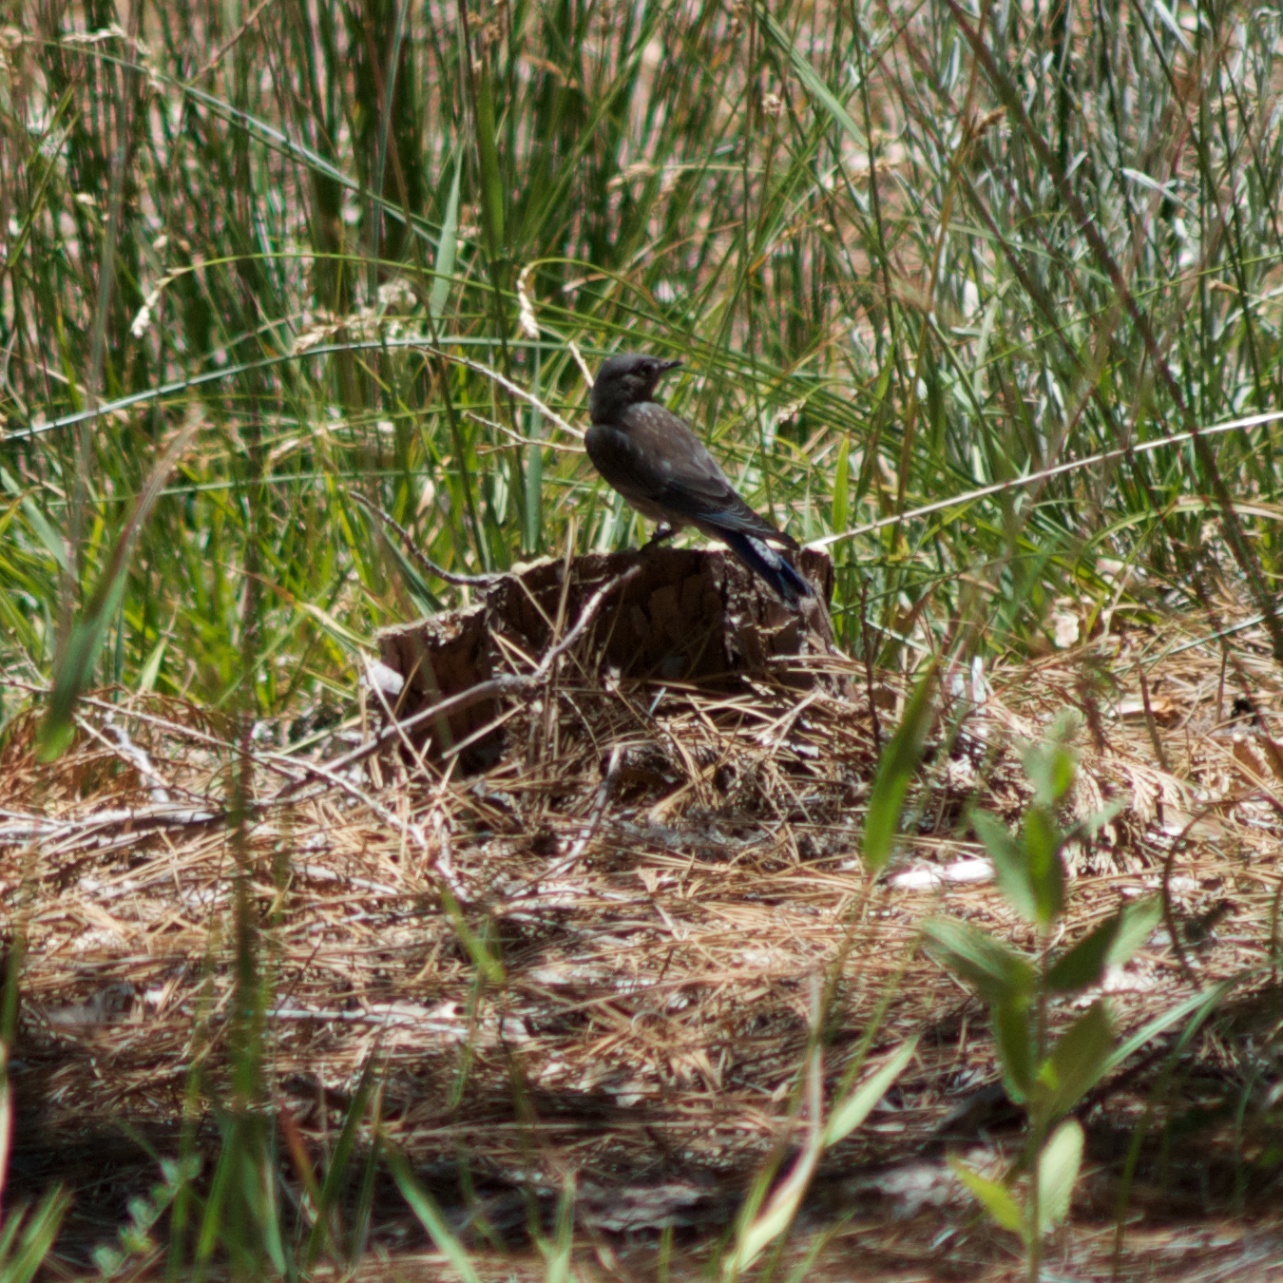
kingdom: Animalia
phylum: Chordata
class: Aves
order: Passeriformes
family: Turdidae
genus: Sialia
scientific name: Sialia mexicana
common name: Western bluebird
